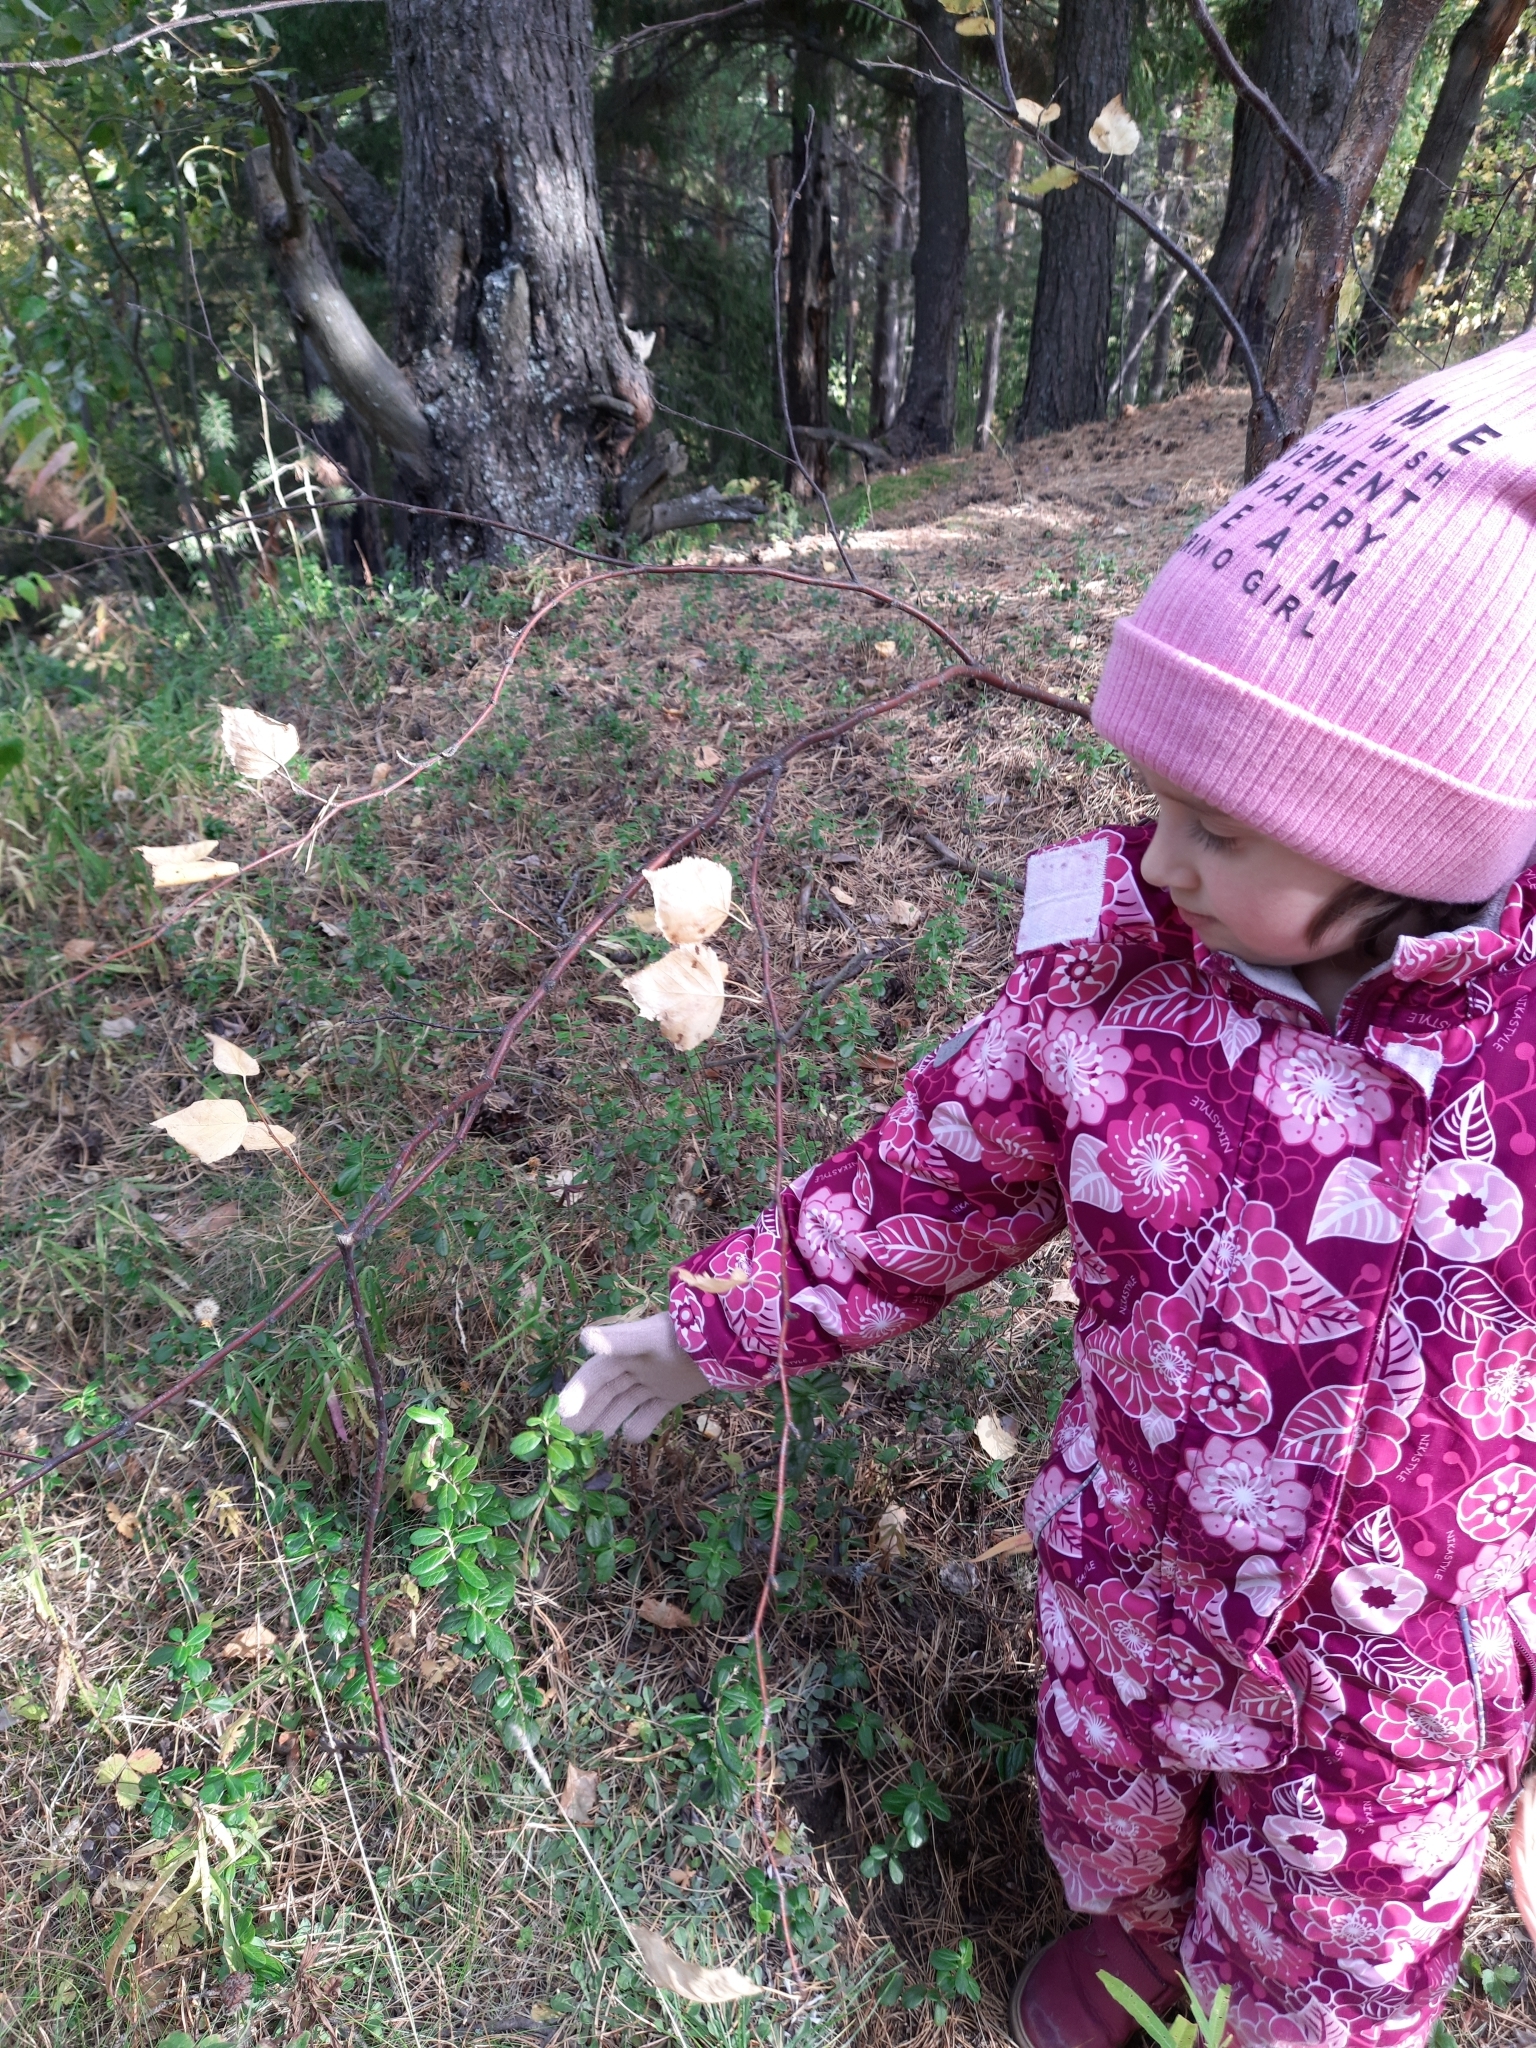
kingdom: Plantae
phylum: Tracheophyta
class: Magnoliopsida
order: Ericales
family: Ericaceae
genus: Vaccinium
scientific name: Vaccinium vitis-idaea
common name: Cowberry
